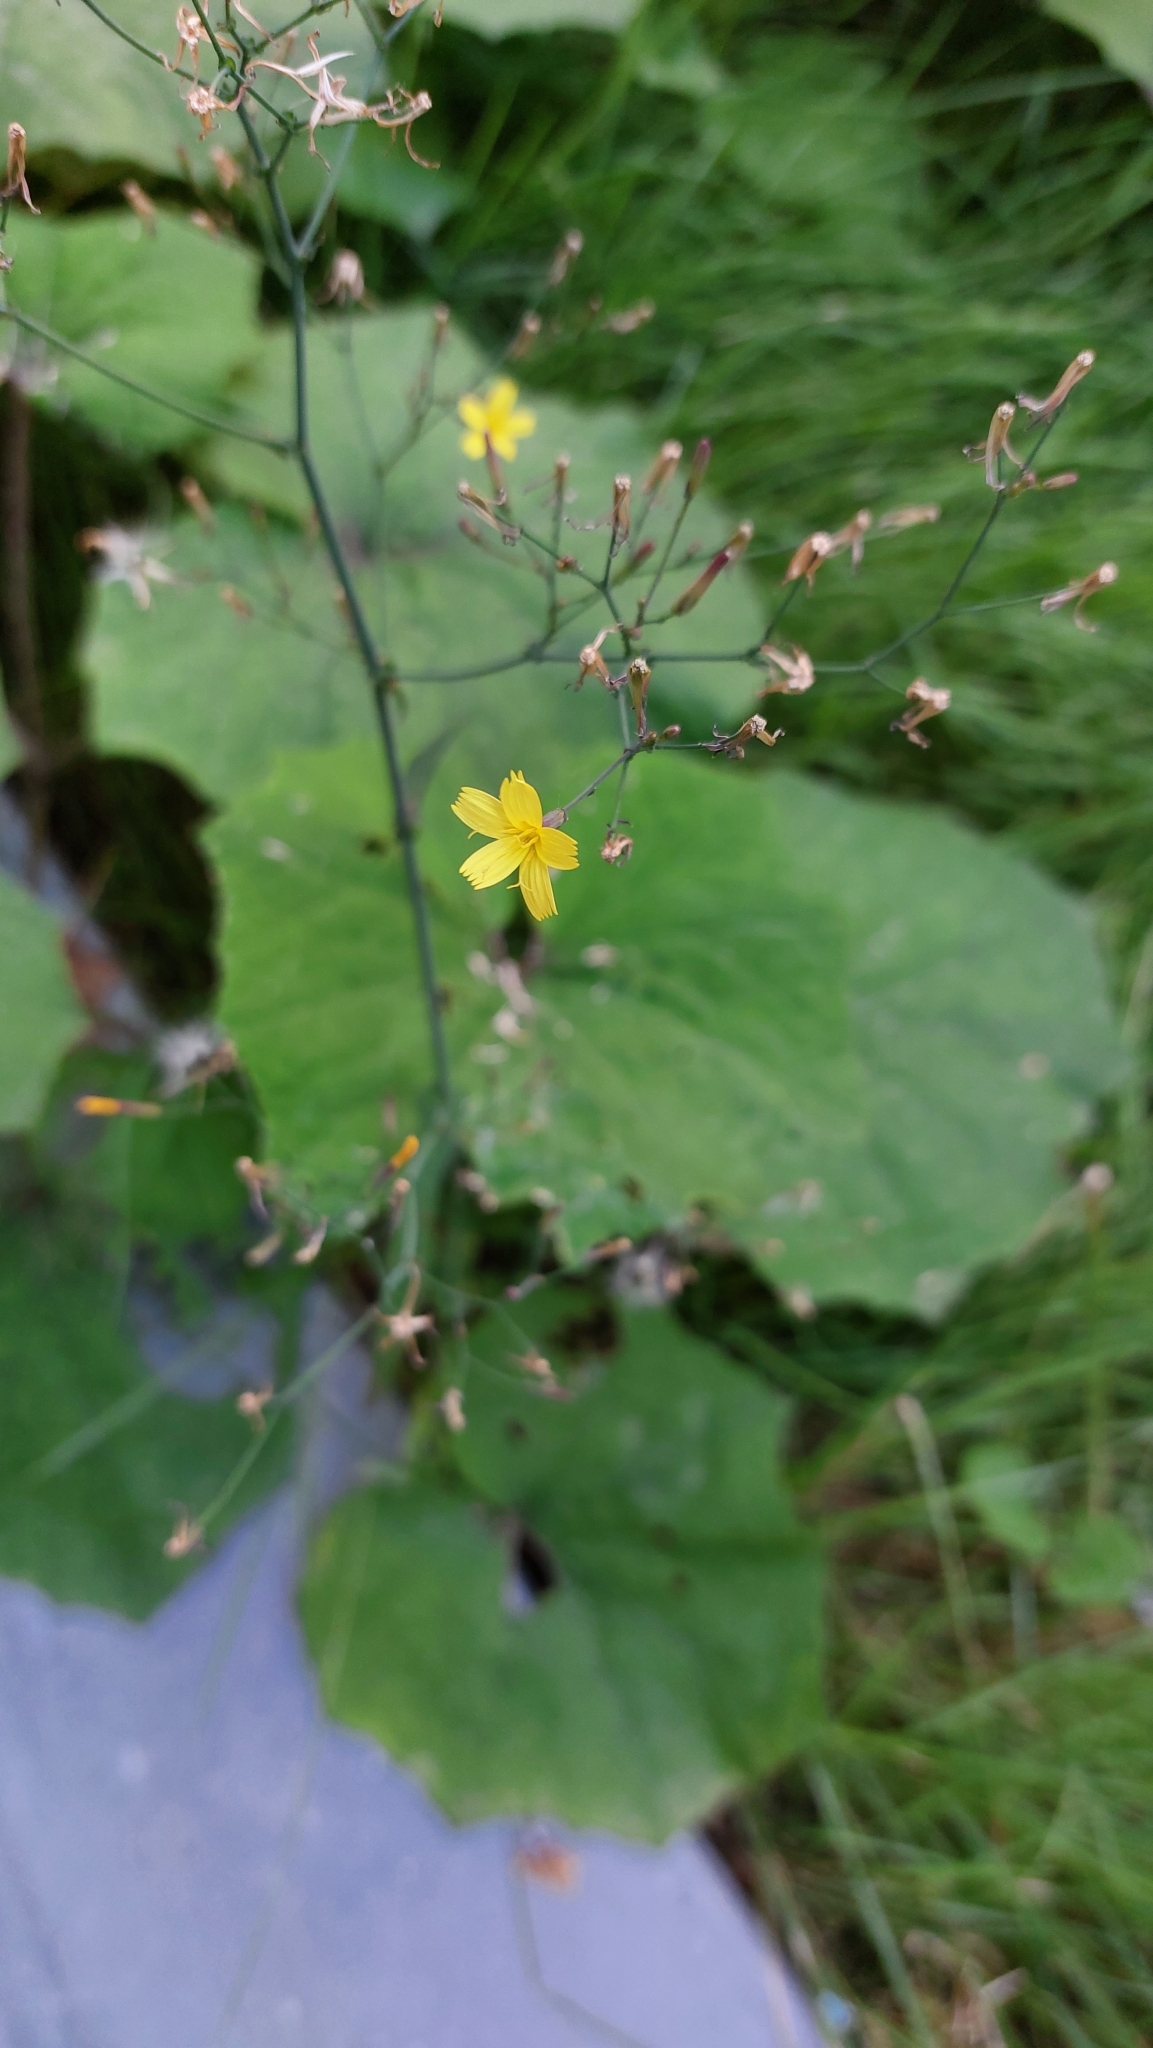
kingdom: Plantae
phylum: Tracheophyta
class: Magnoliopsida
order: Asterales
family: Asteraceae
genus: Mycelis
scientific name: Mycelis muralis
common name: Wall lettuce
